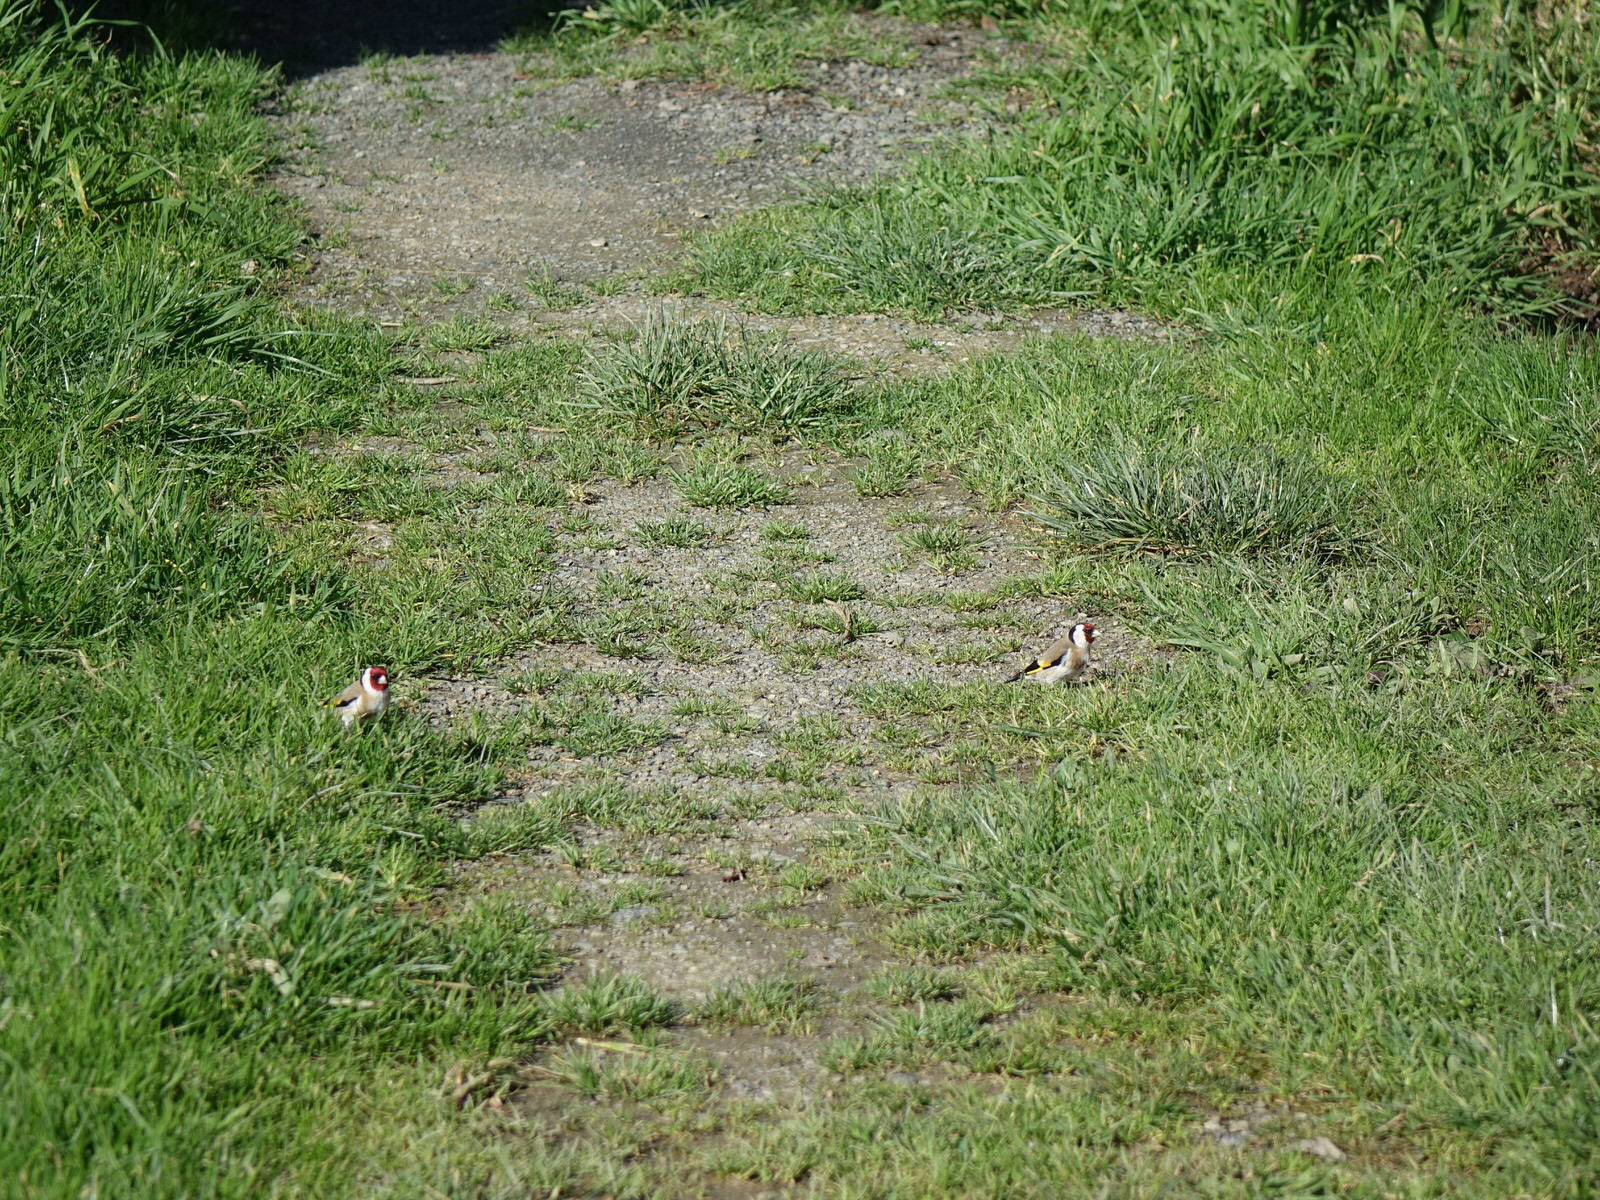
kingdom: Animalia
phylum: Chordata
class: Aves
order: Passeriformes
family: Fringillidae
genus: Carduelis
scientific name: Carduelis carduelis
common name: European goldfinch
